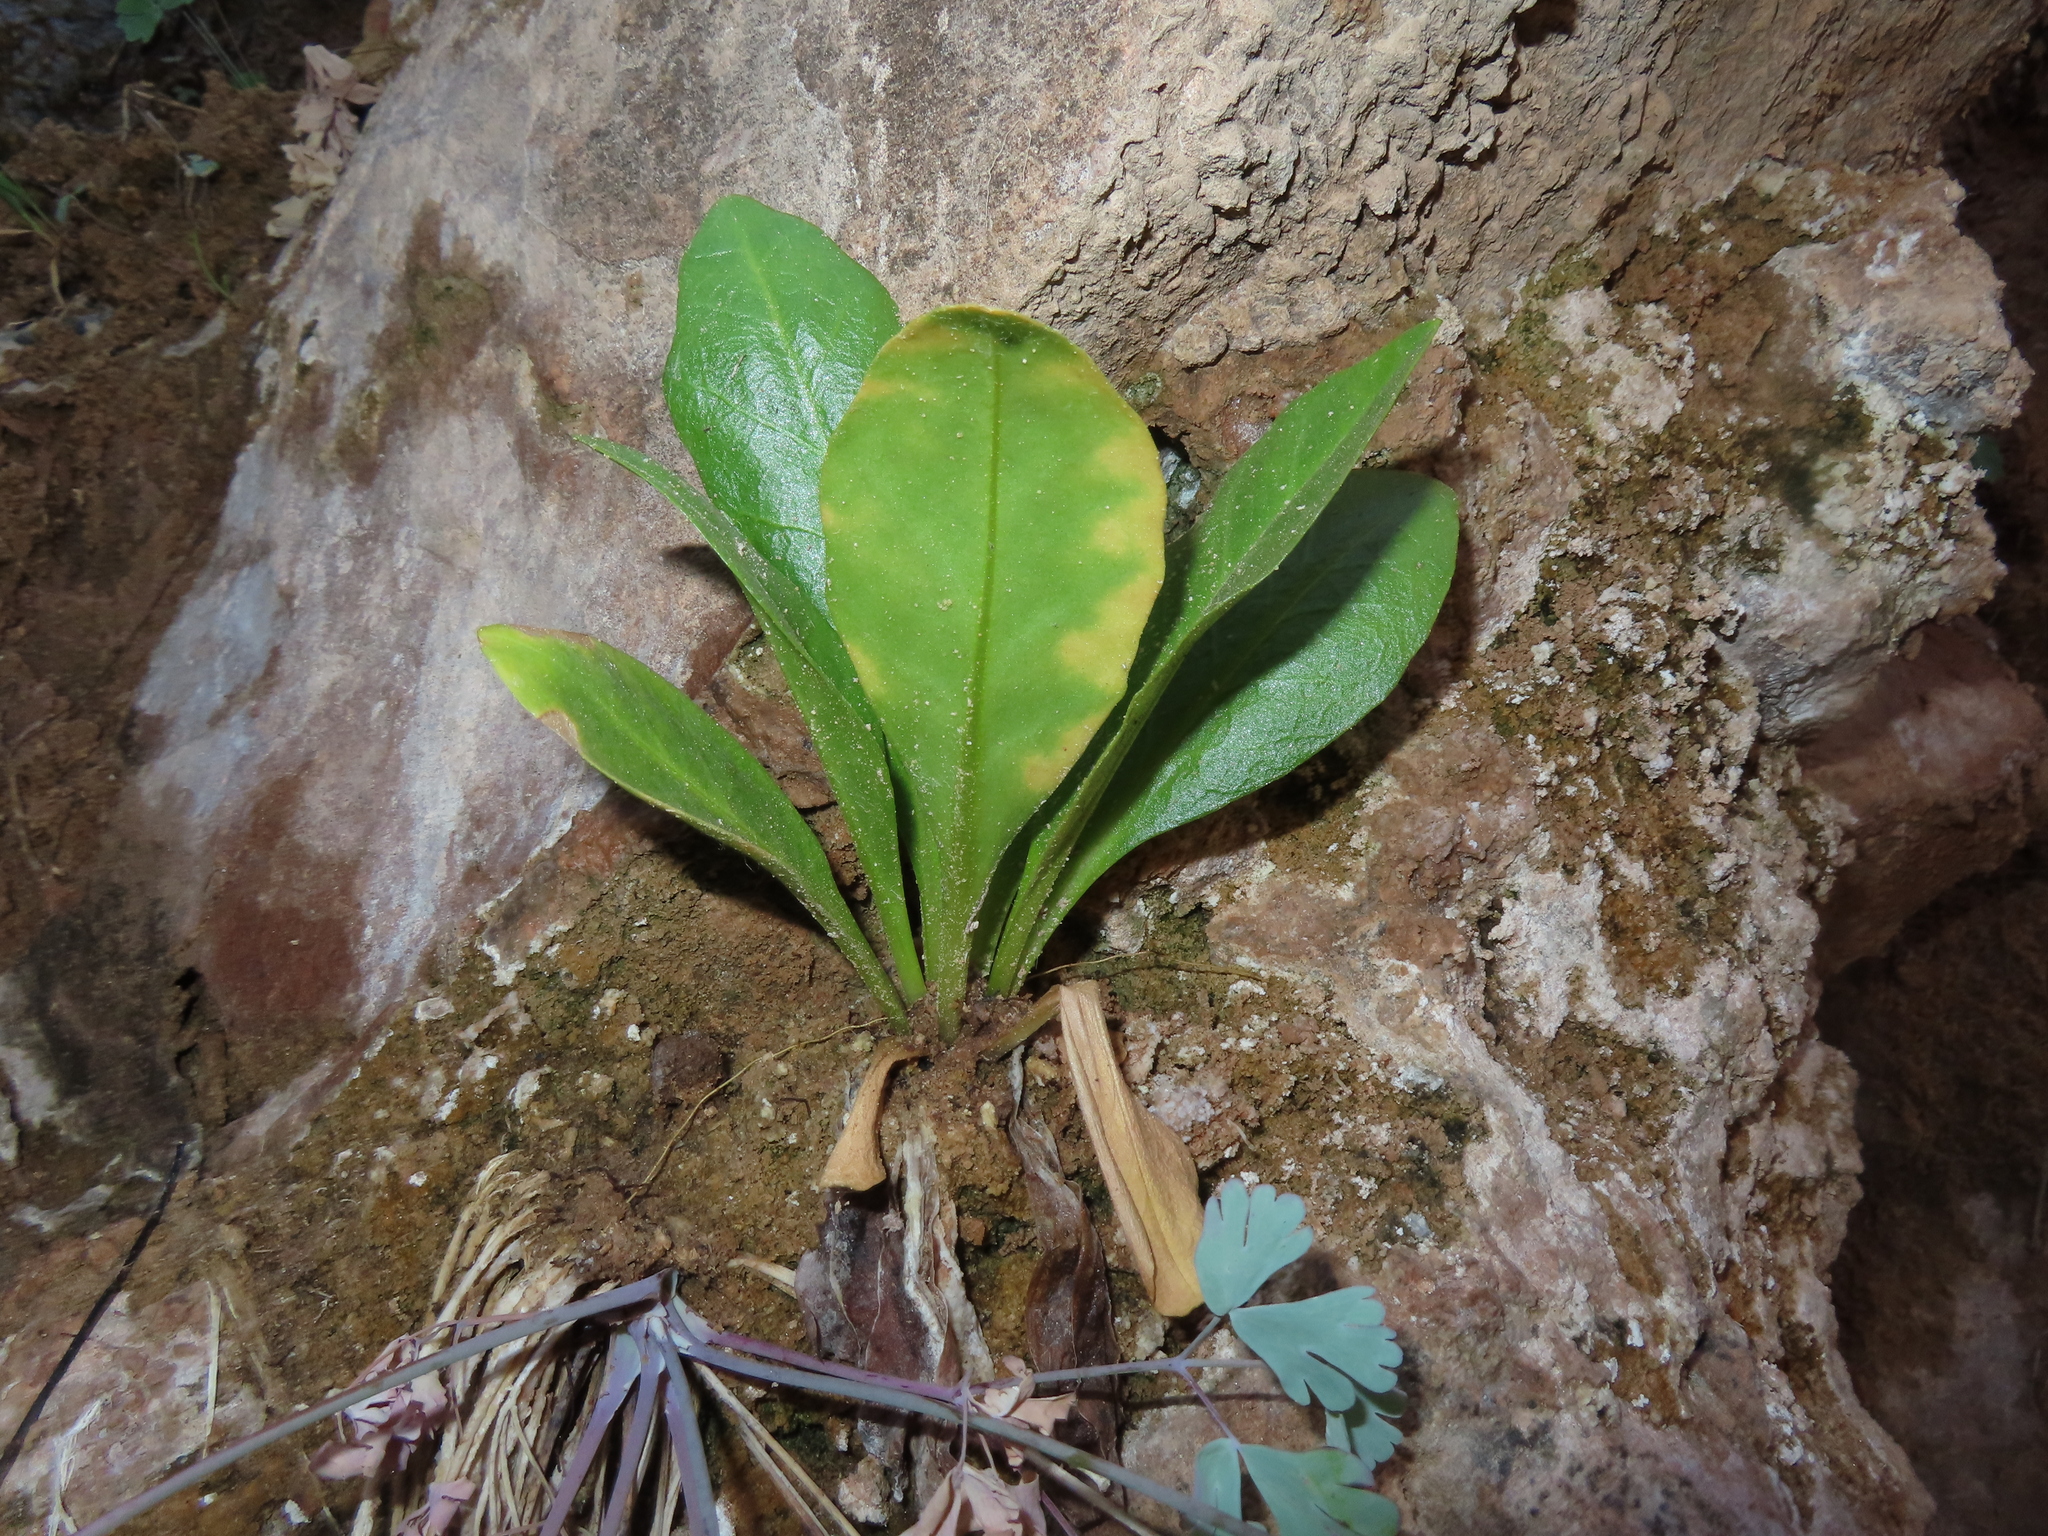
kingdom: Plantae
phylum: Tracheophyta
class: Magnoliopsida
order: Ericales
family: Primulaceae
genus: Dodecatheon
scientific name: Dodecatheon pulchellum
